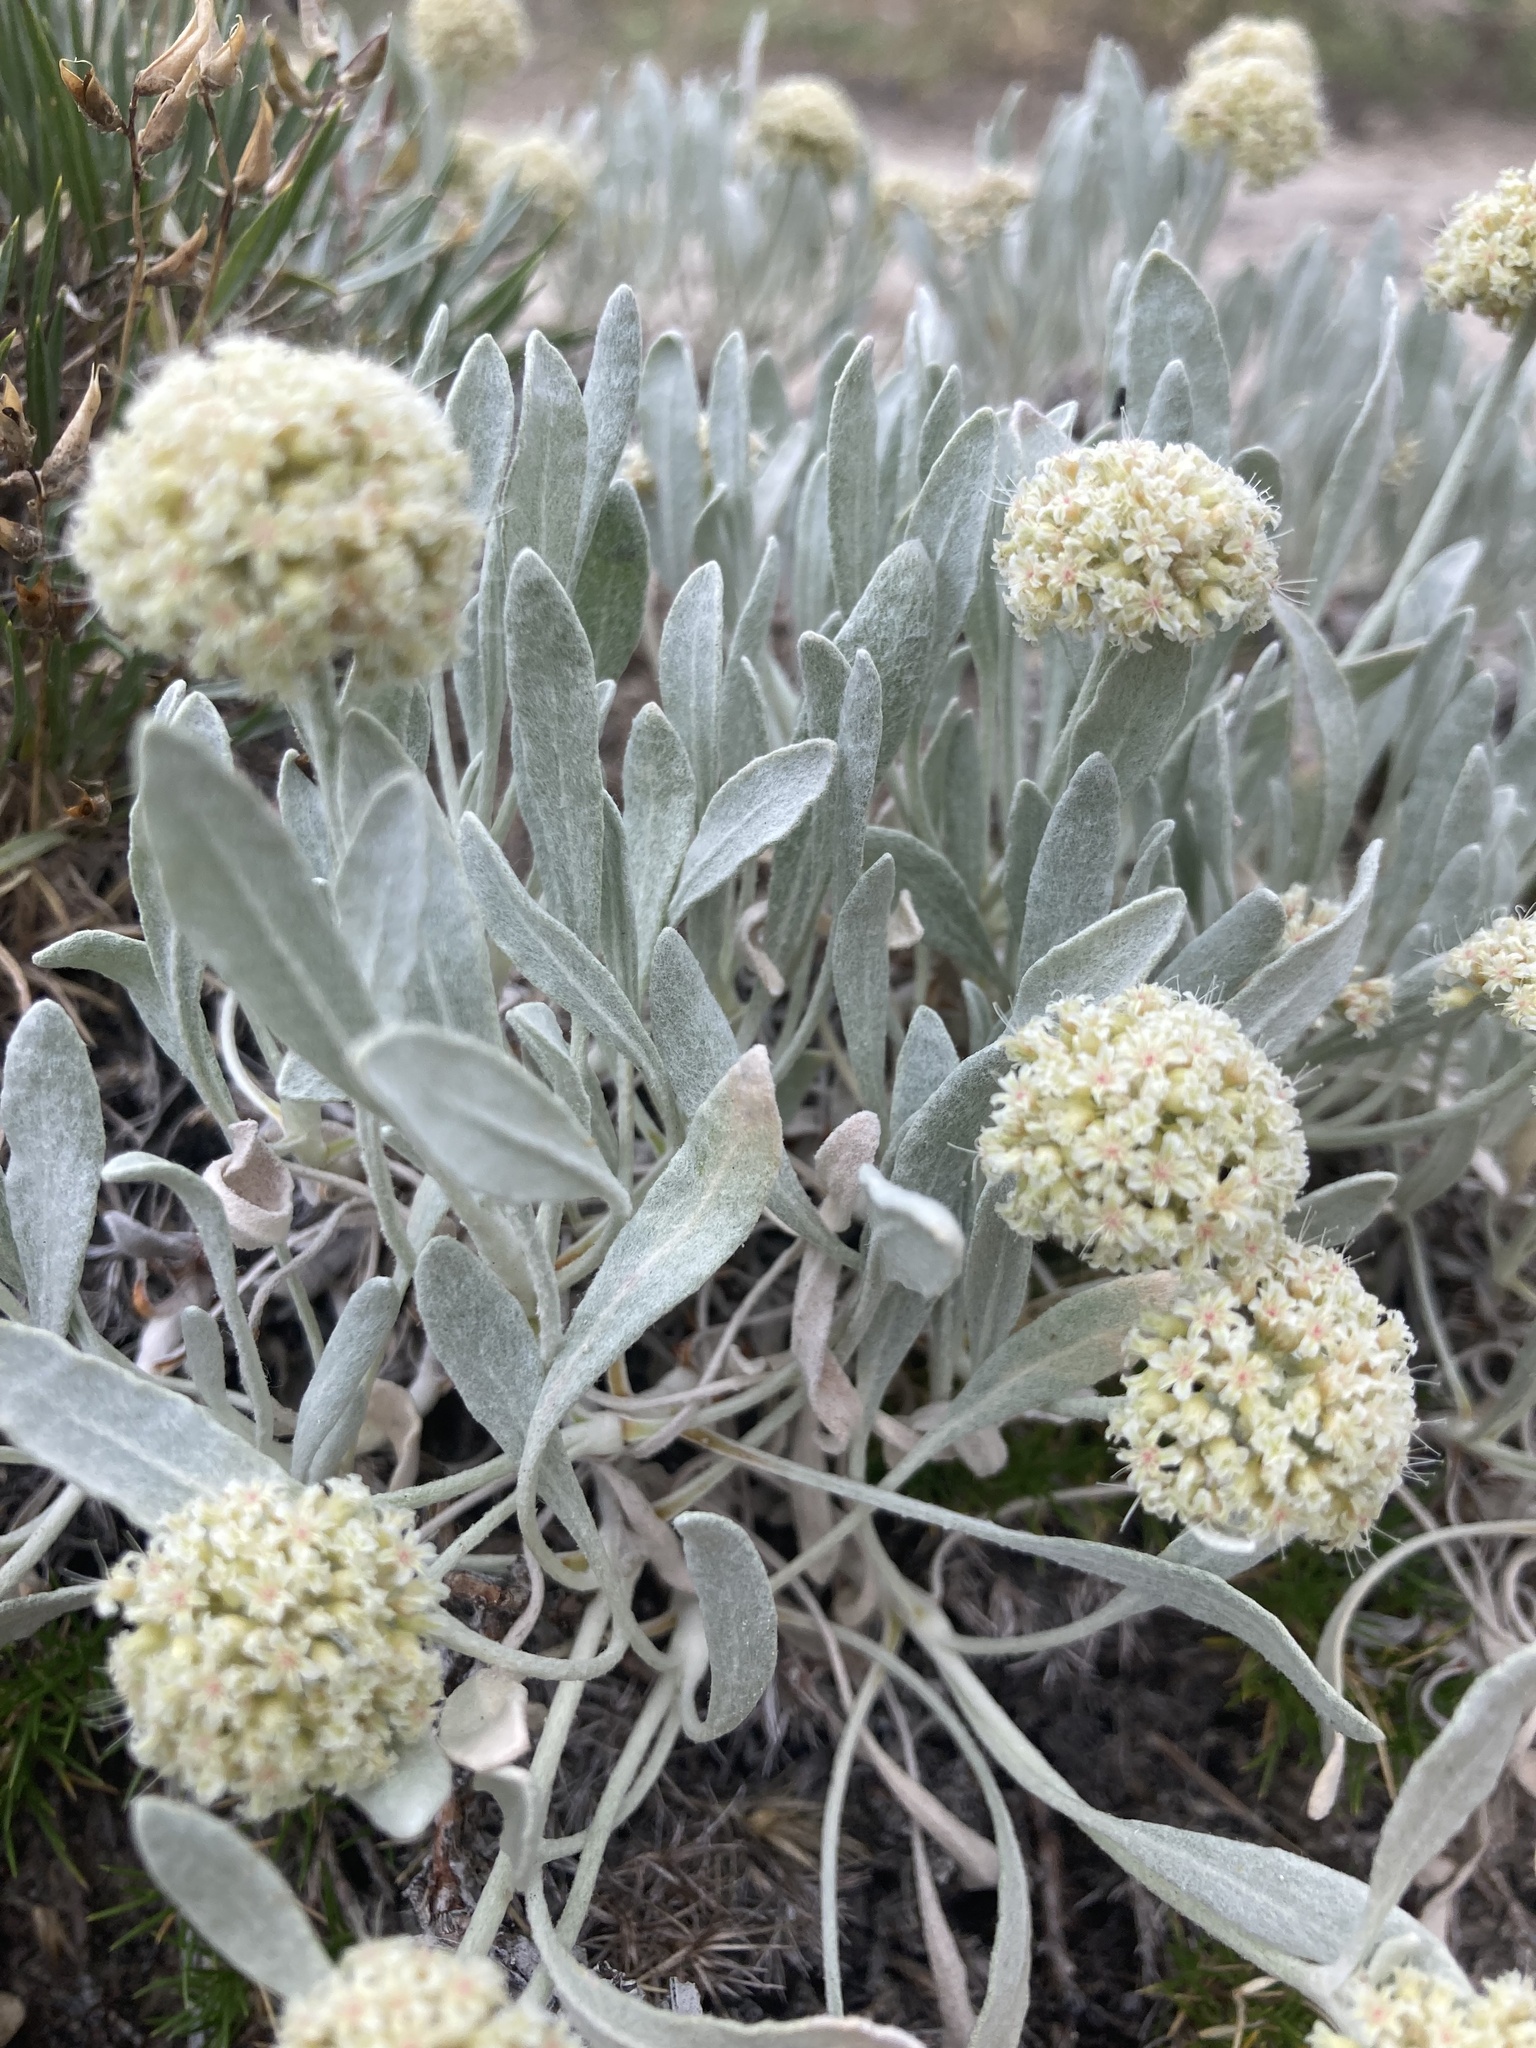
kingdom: Plantae
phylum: Tracheophyta
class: Magnoliopsida
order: Caryophyllales
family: Polygonaceae
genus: Eriogonum
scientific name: Eriogonum pauciflorum
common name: Few-flower wild buckwheat
